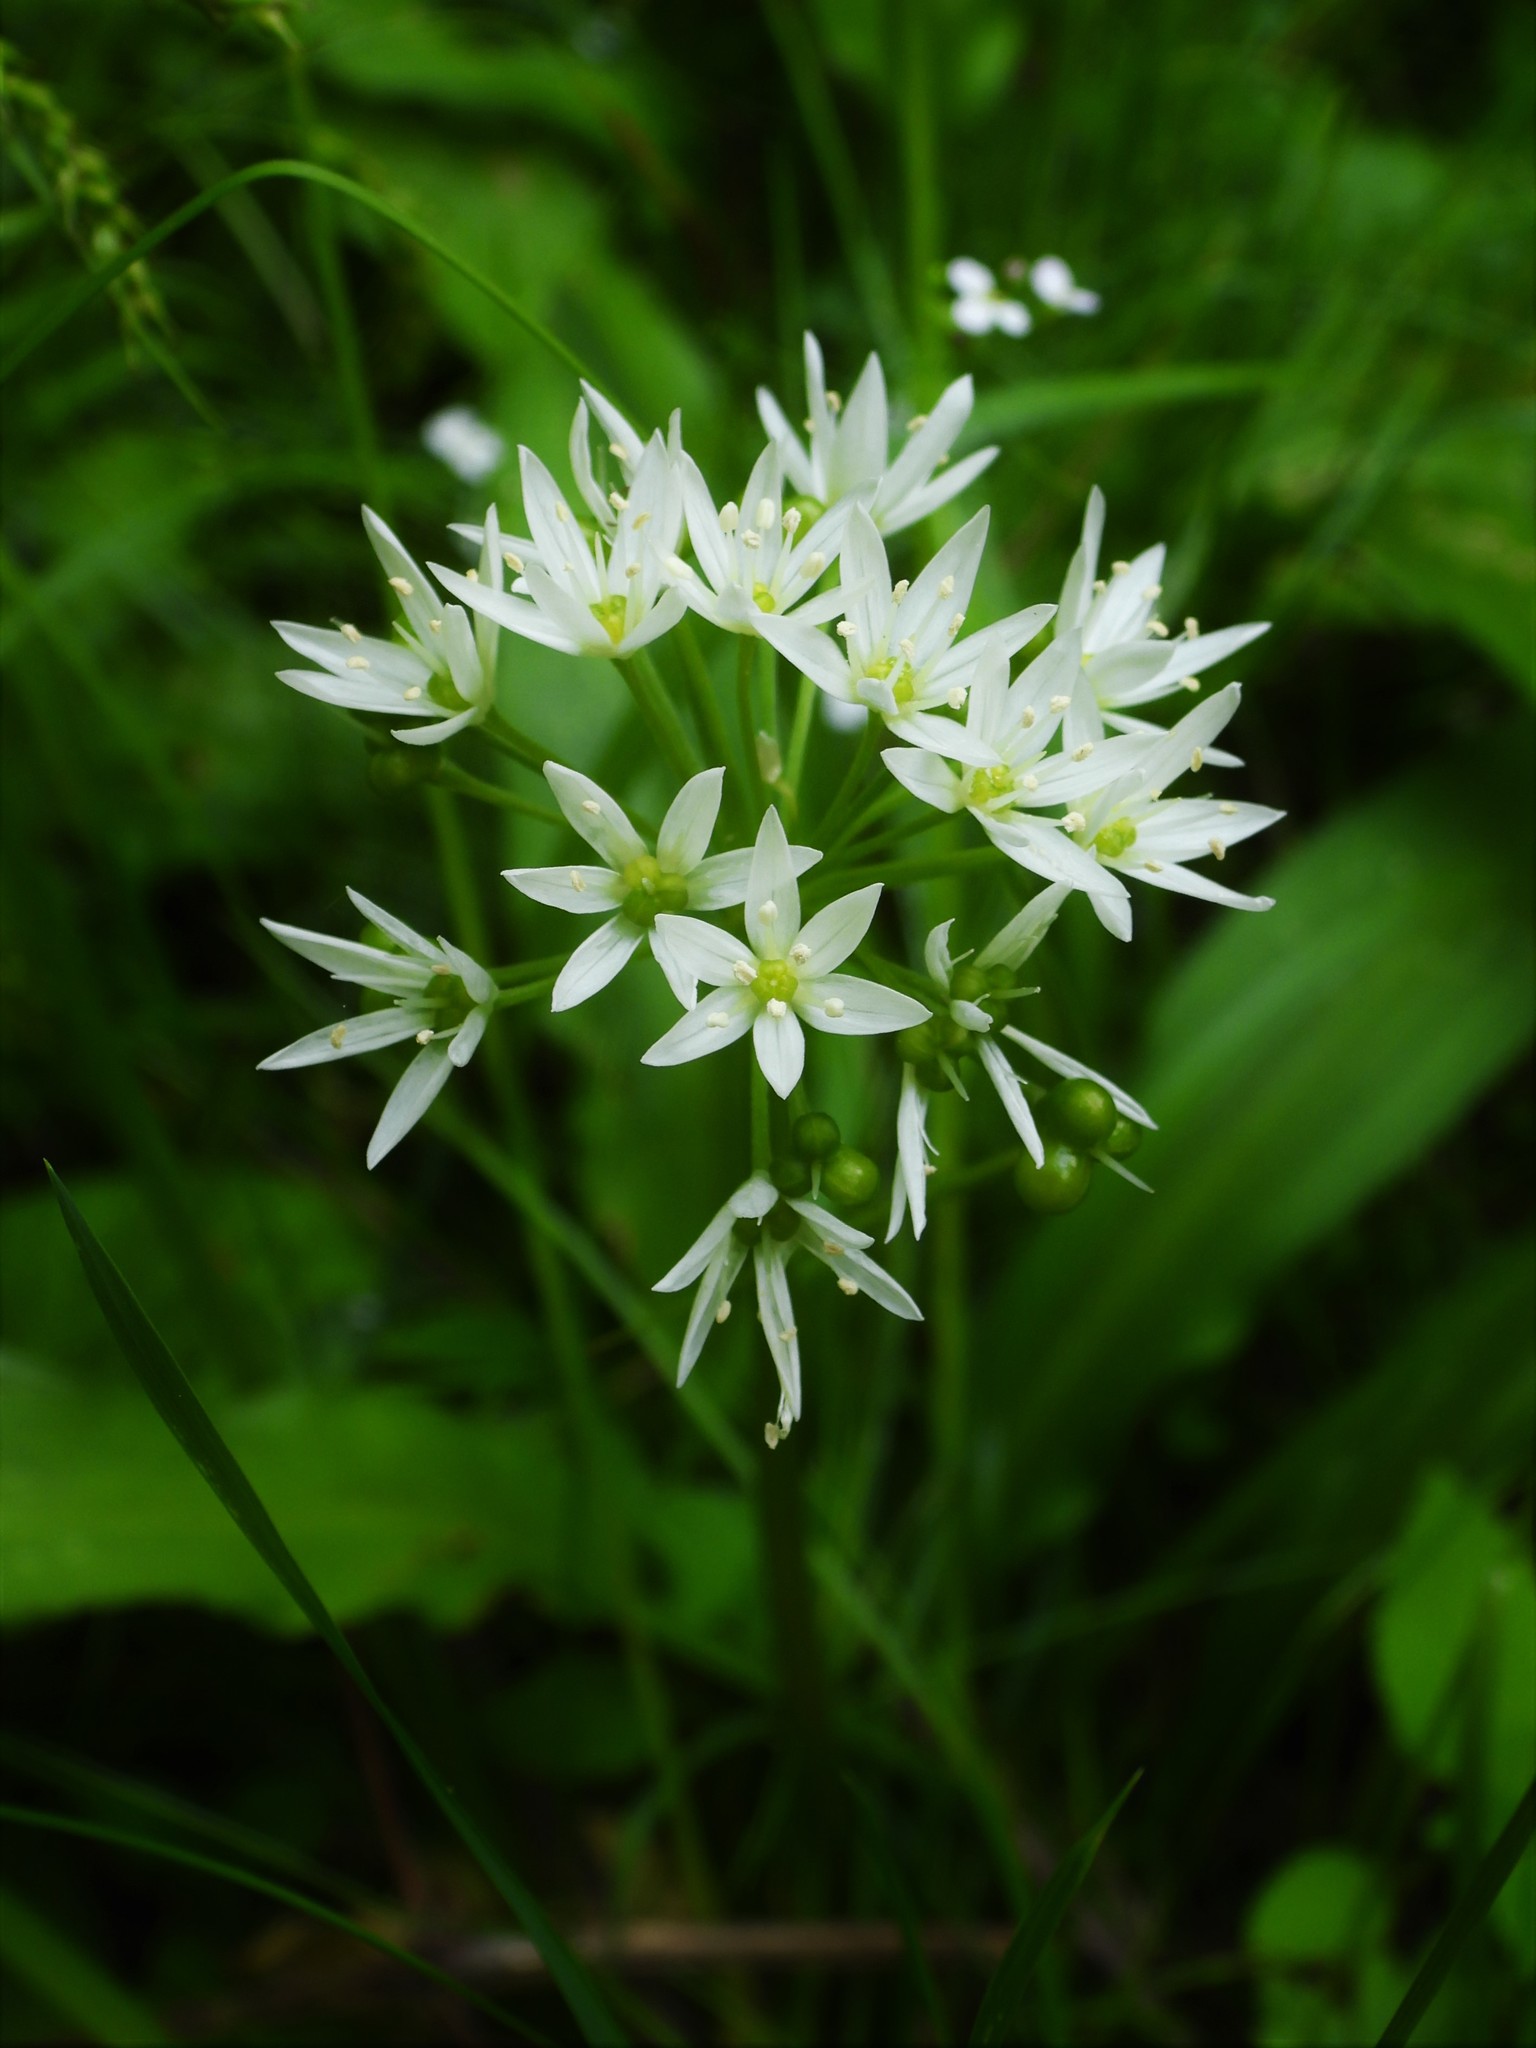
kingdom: Plantae
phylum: Tracheophyta
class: Liliopsida
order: Asparagales
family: Amaryllidaceae
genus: Allium
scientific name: Allium ursinum
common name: Ramsons
